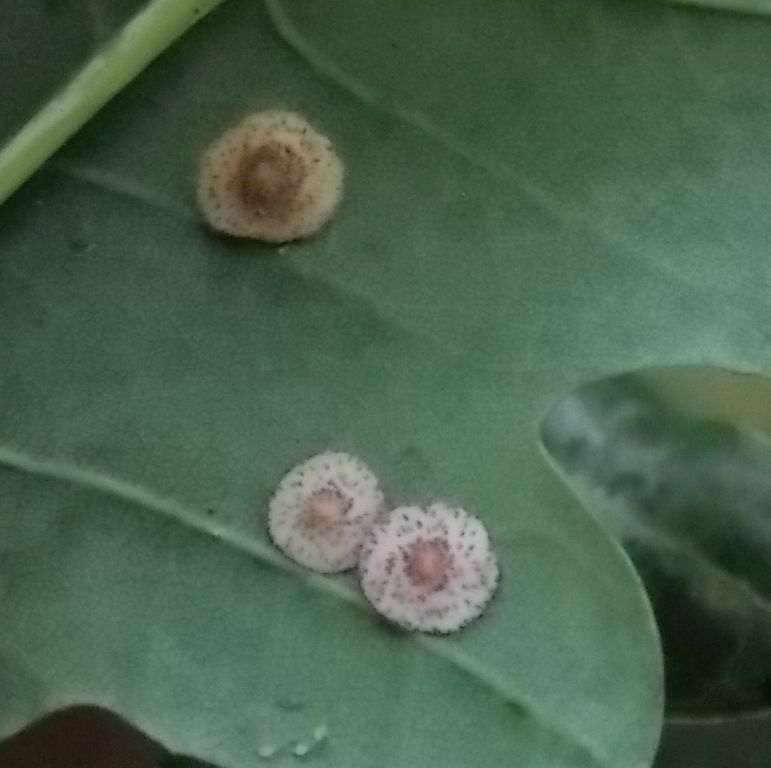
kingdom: Animalia
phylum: Arthropoda
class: Insecta
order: Hymenoptera
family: Cynipidae
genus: Neuroterus
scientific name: Neuroterus quercusbaccarum
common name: Common spangle gall
